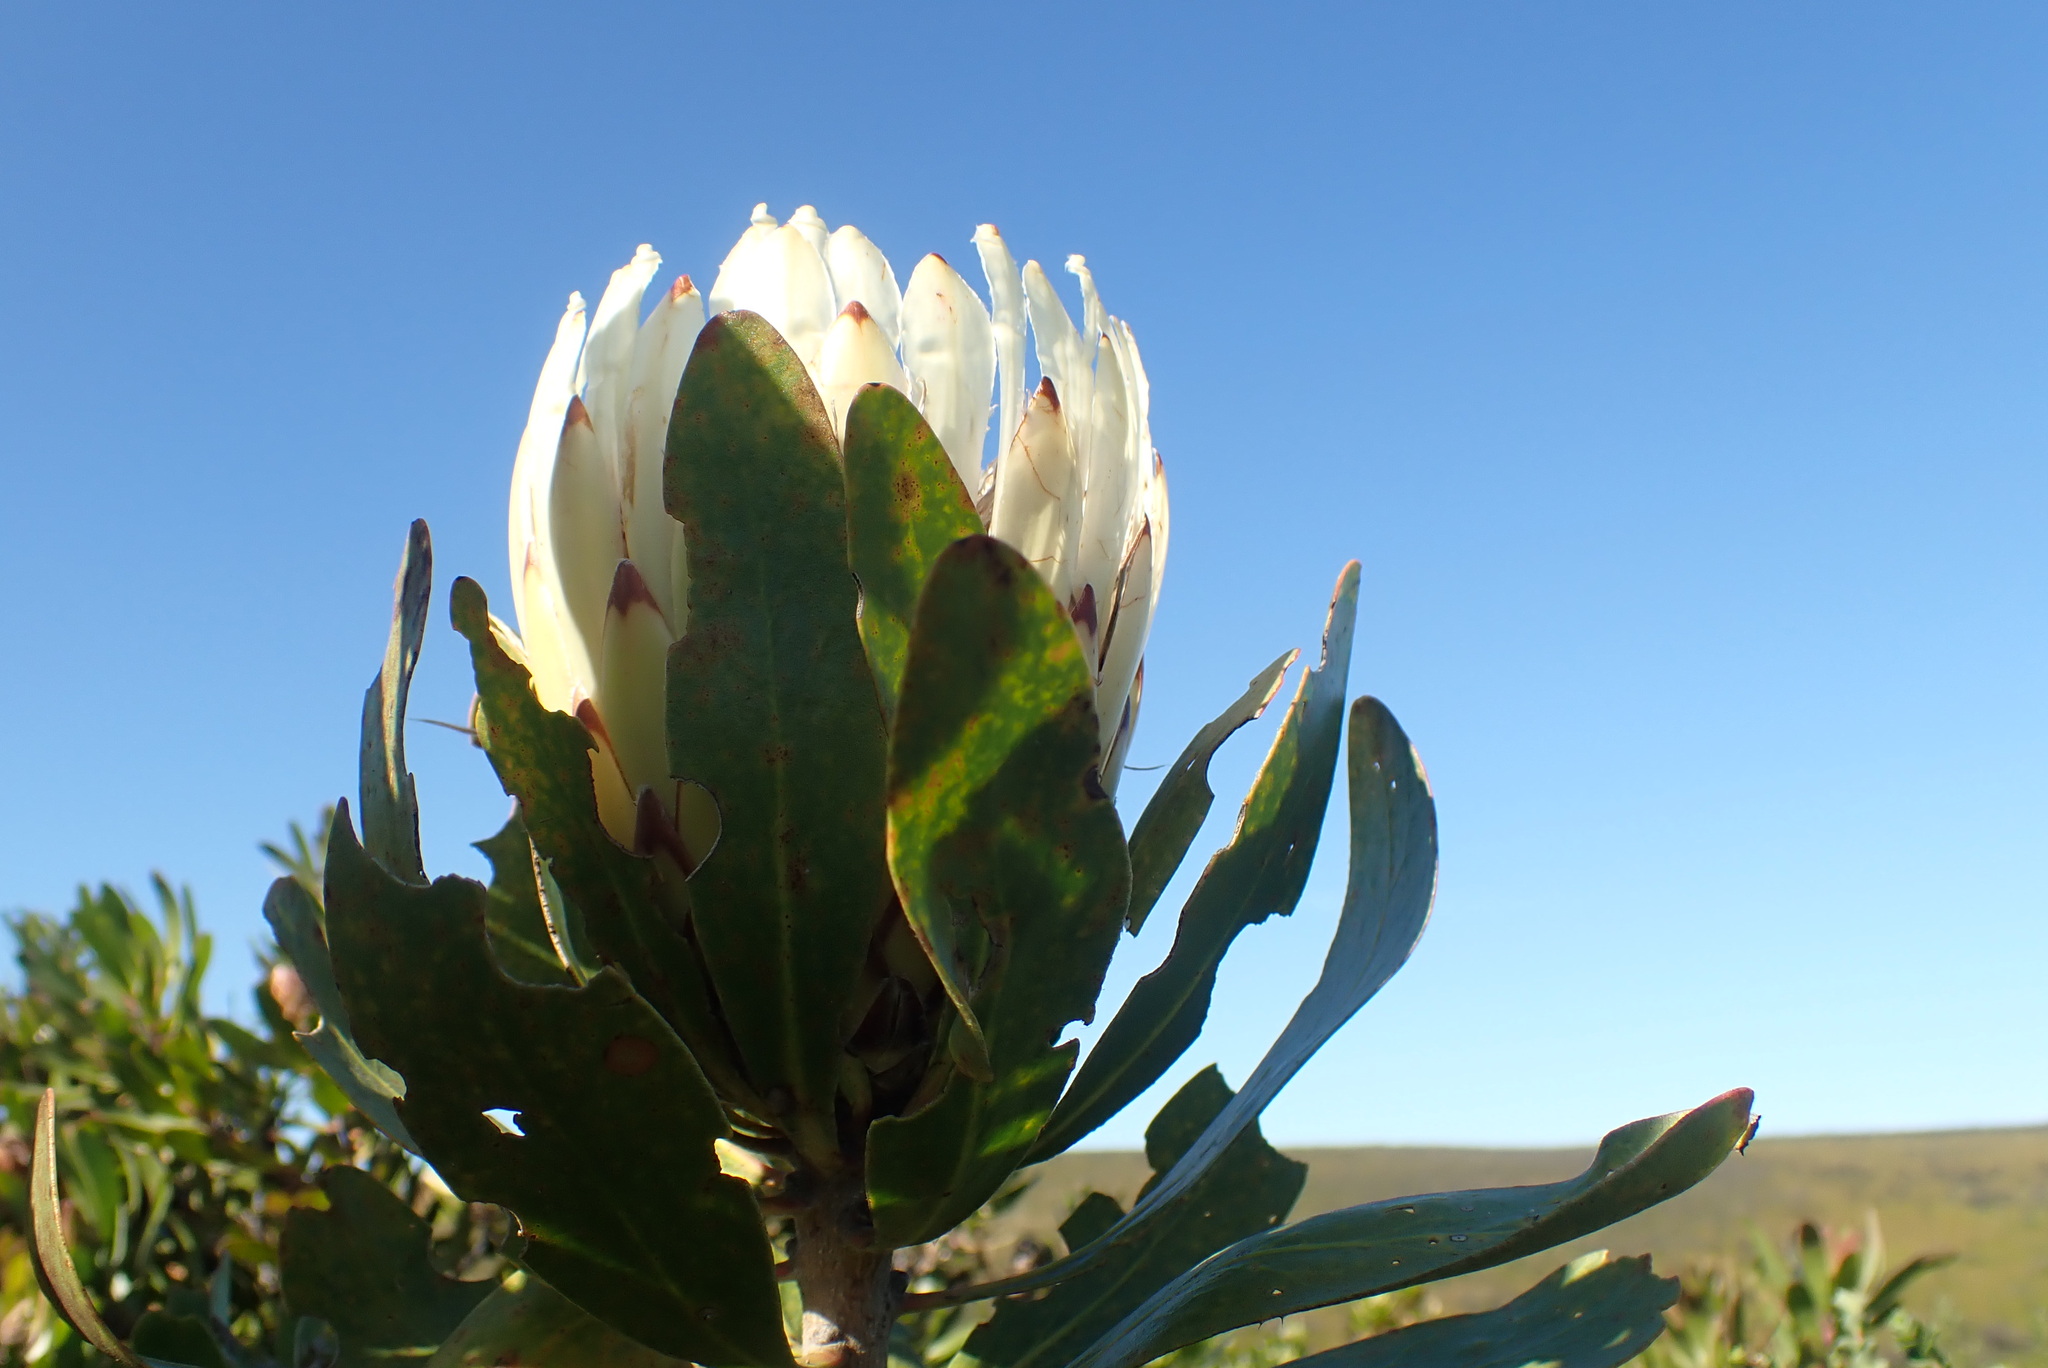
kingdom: Plantae
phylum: Tracheophyta
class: Magnoliopsida
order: Proteales
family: Proteaceae
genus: Protea
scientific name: Protea obtusifolia
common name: Bredasdorp sugarbush
